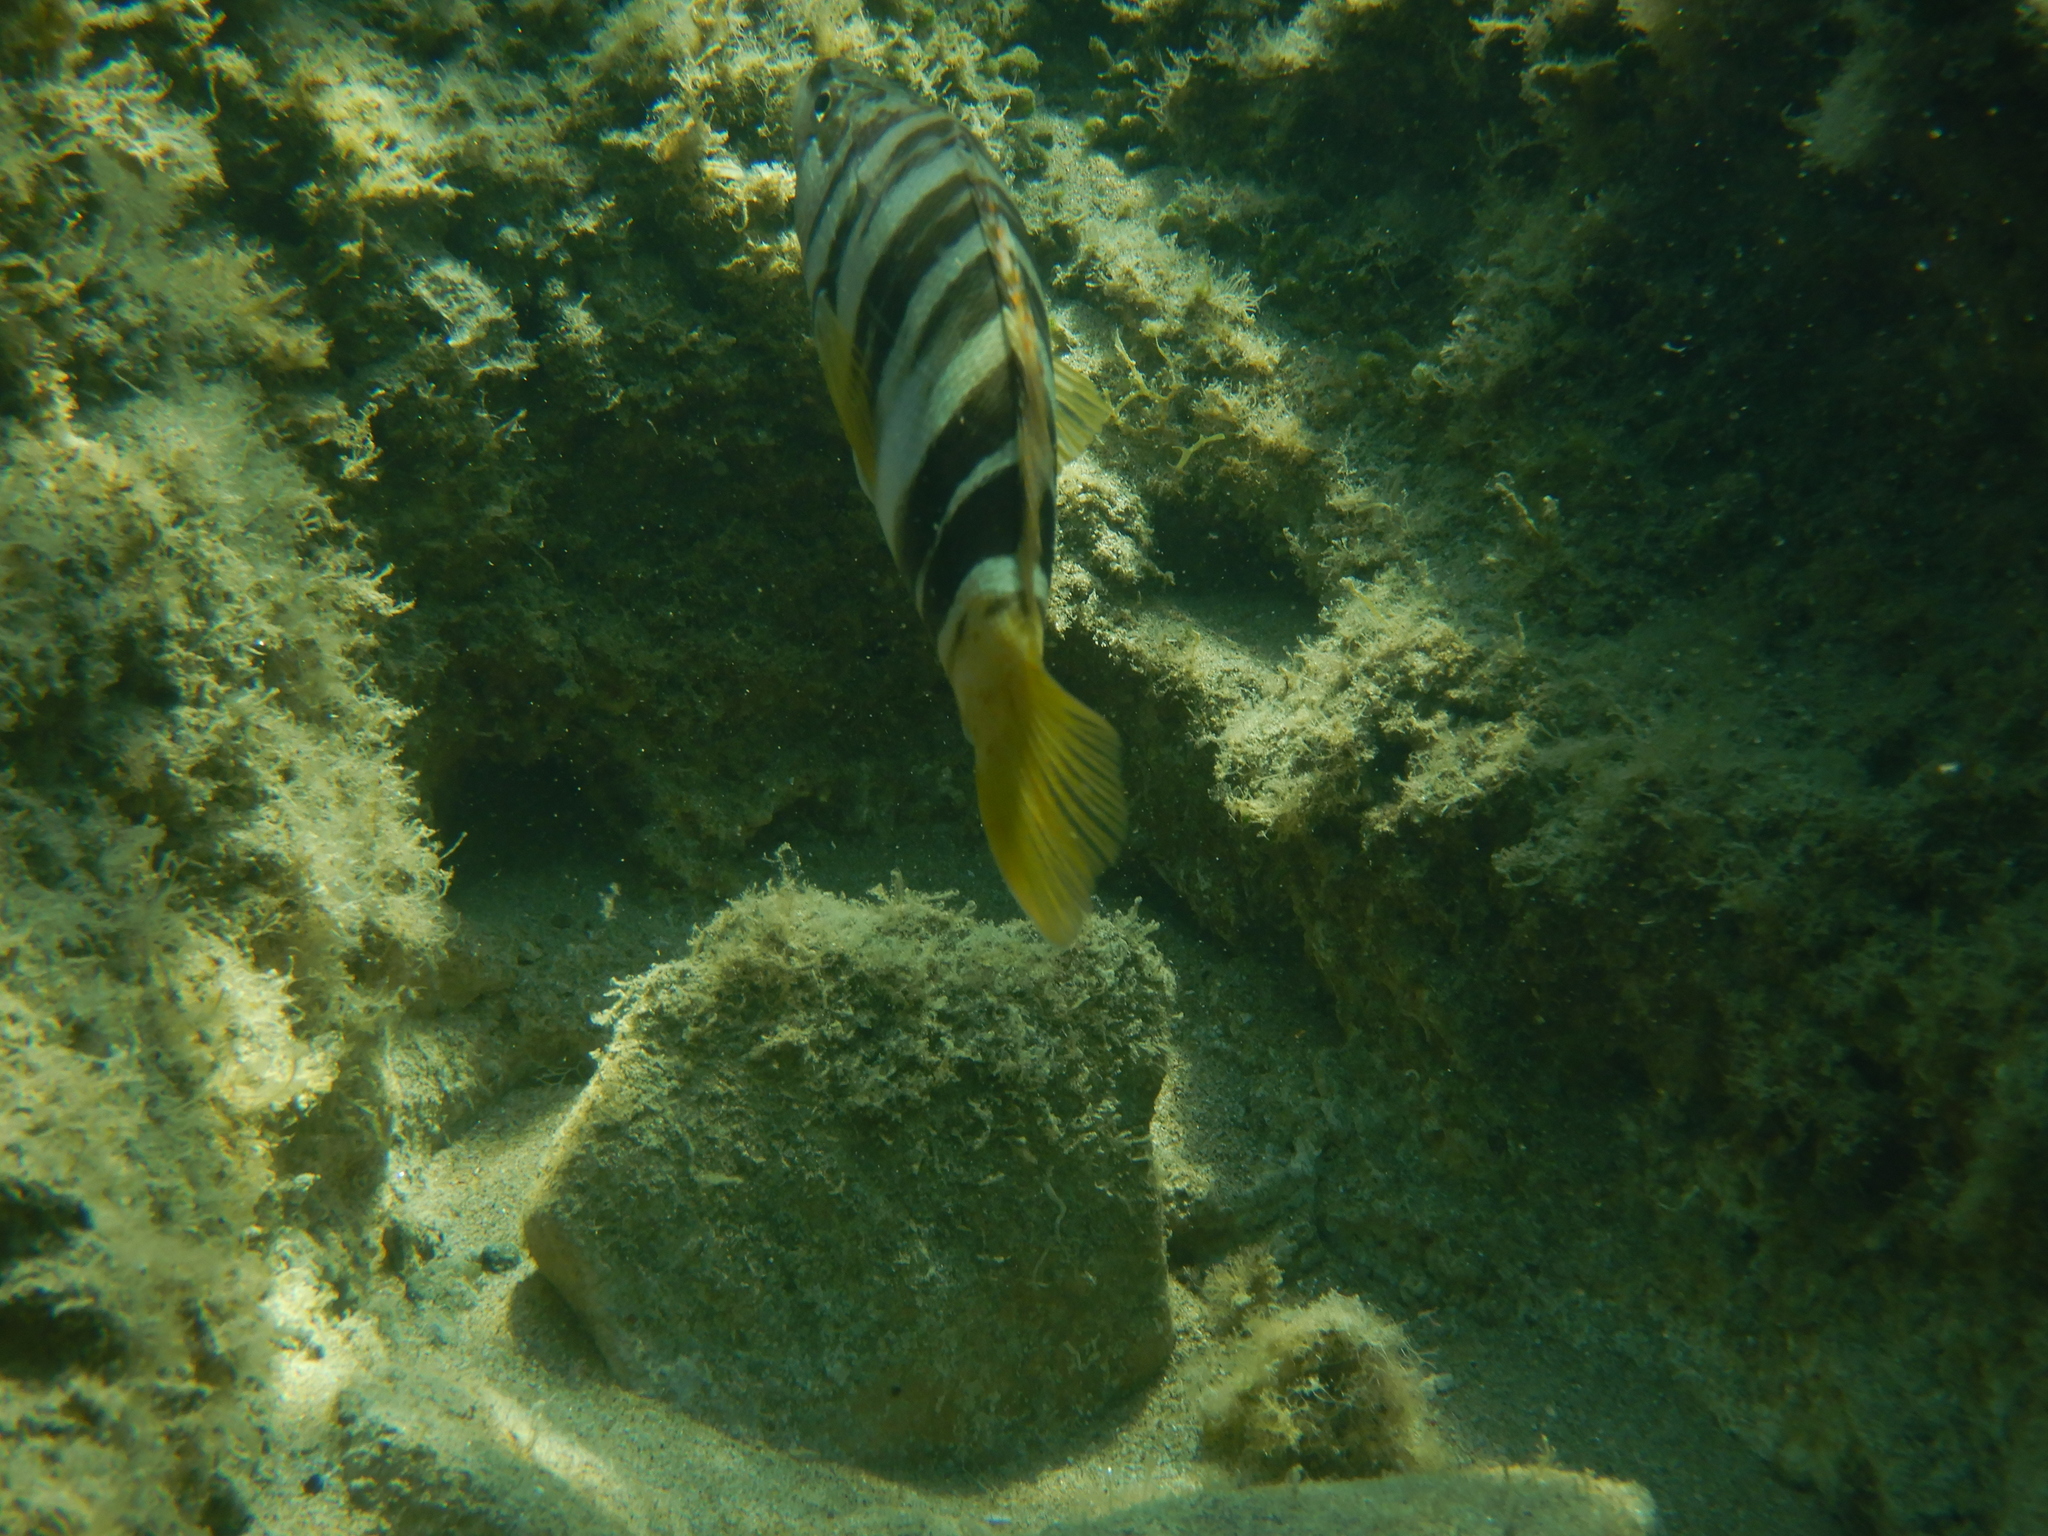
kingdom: Animalia
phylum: Chordata
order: Perciformes
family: Serranidae
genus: Serranus
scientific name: Serranus scriba
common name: Painted comber
